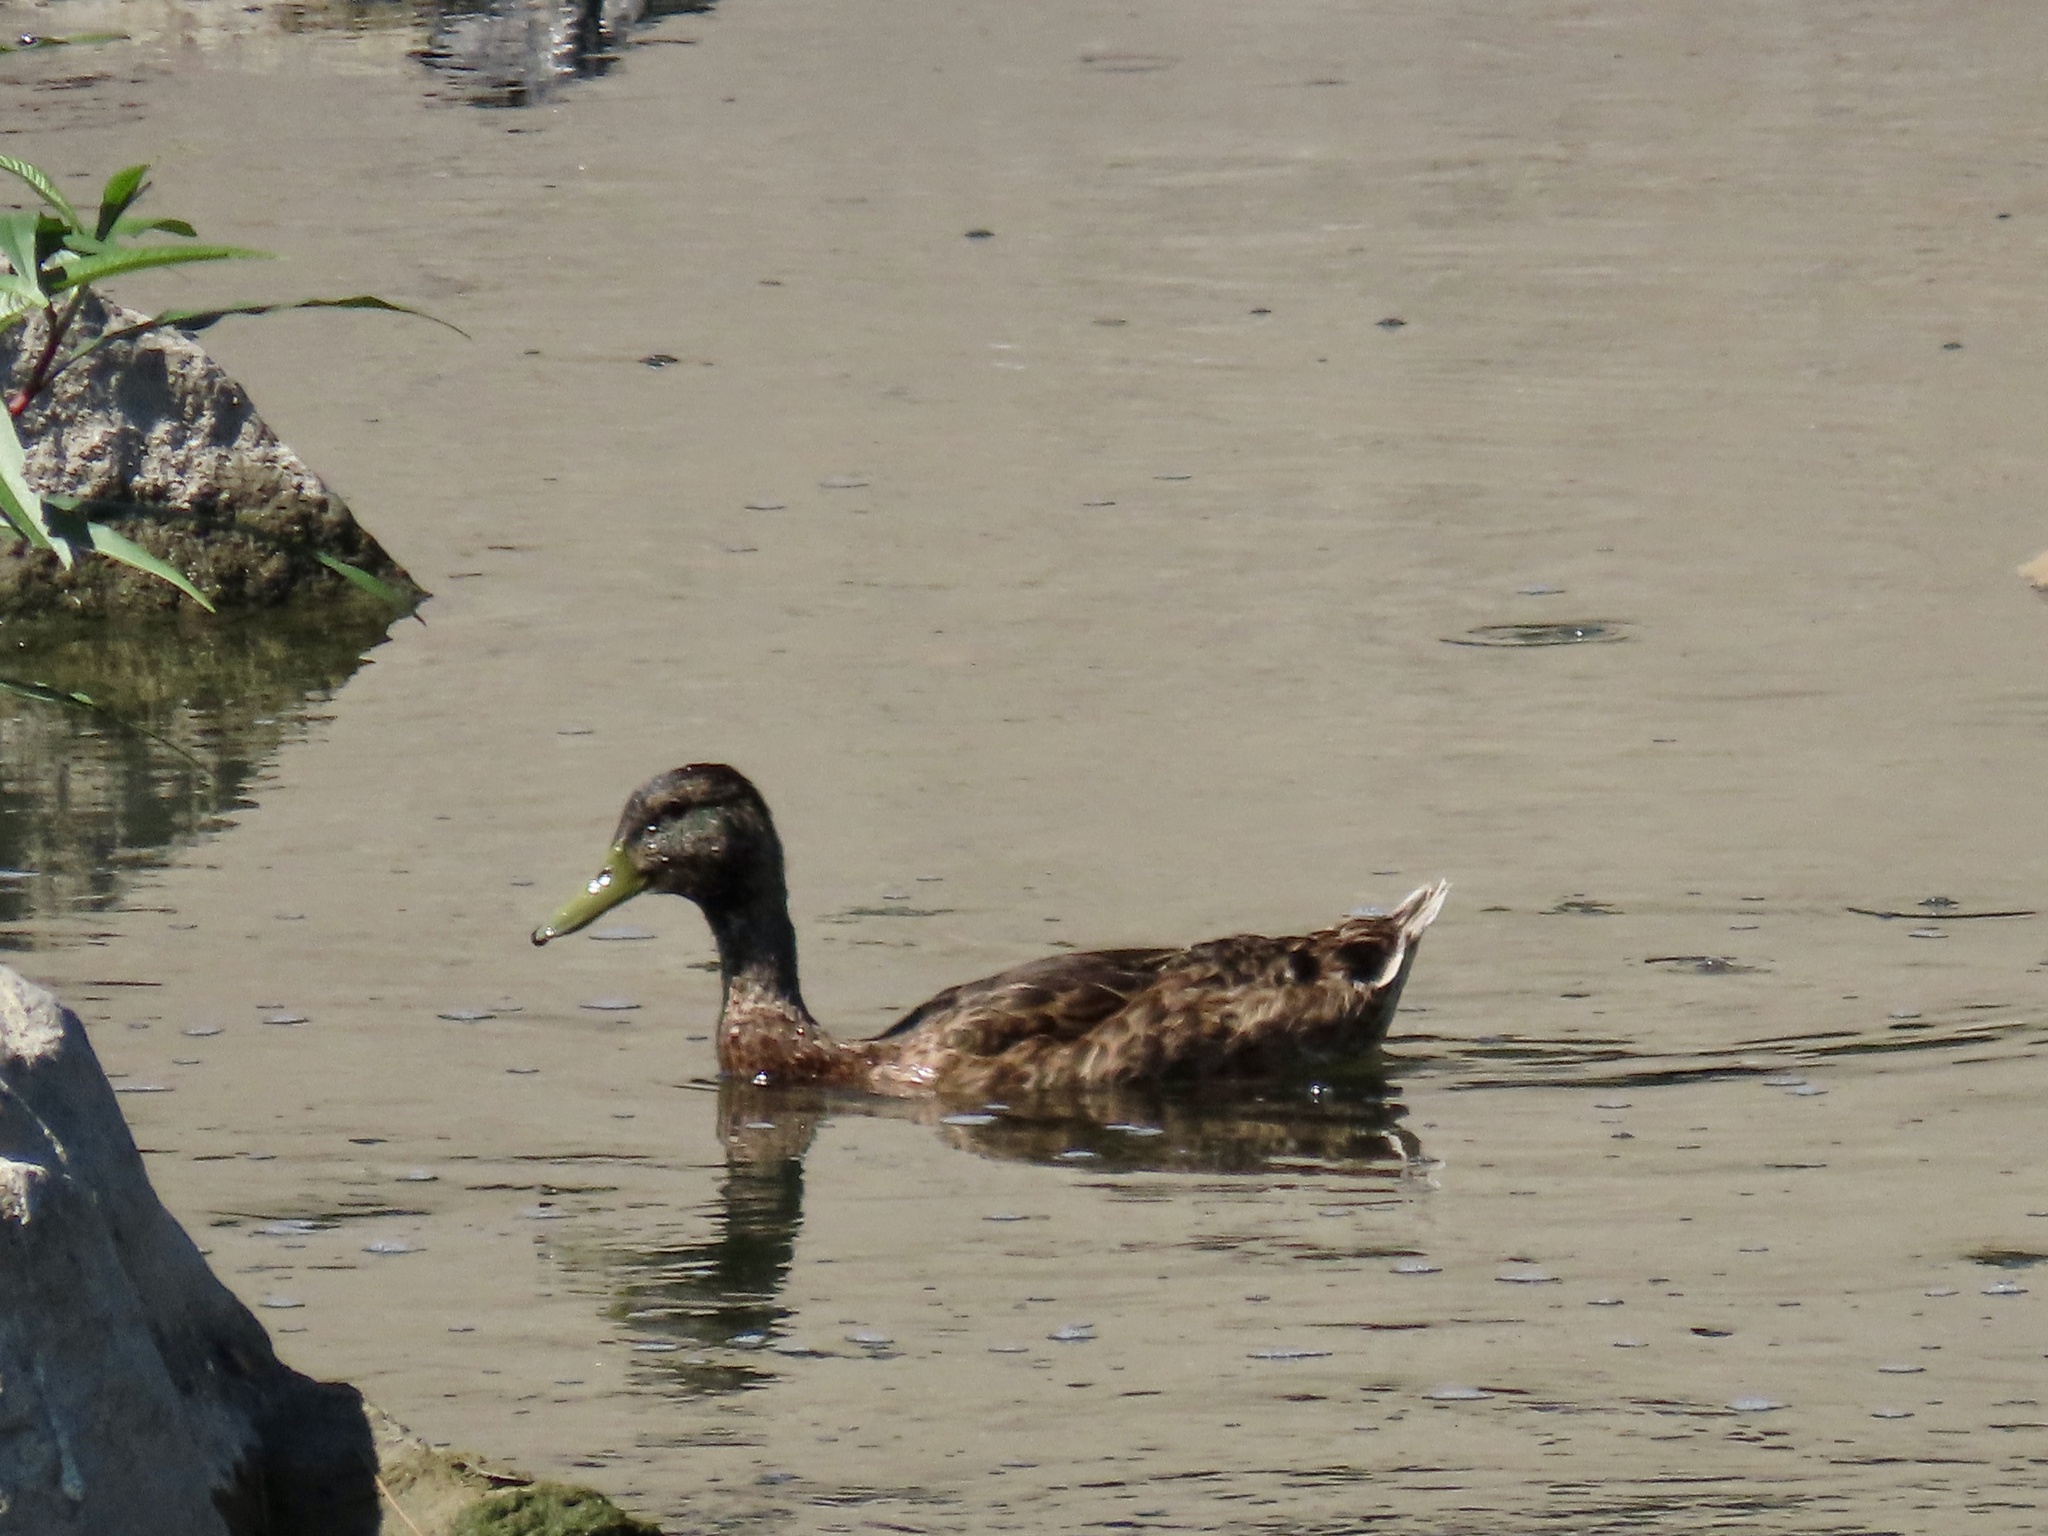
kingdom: Animalia
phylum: Chordata
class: Aves
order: Anseriformes
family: Anatidae
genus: Anas
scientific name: Anas platyrhynchos
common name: Mallard
